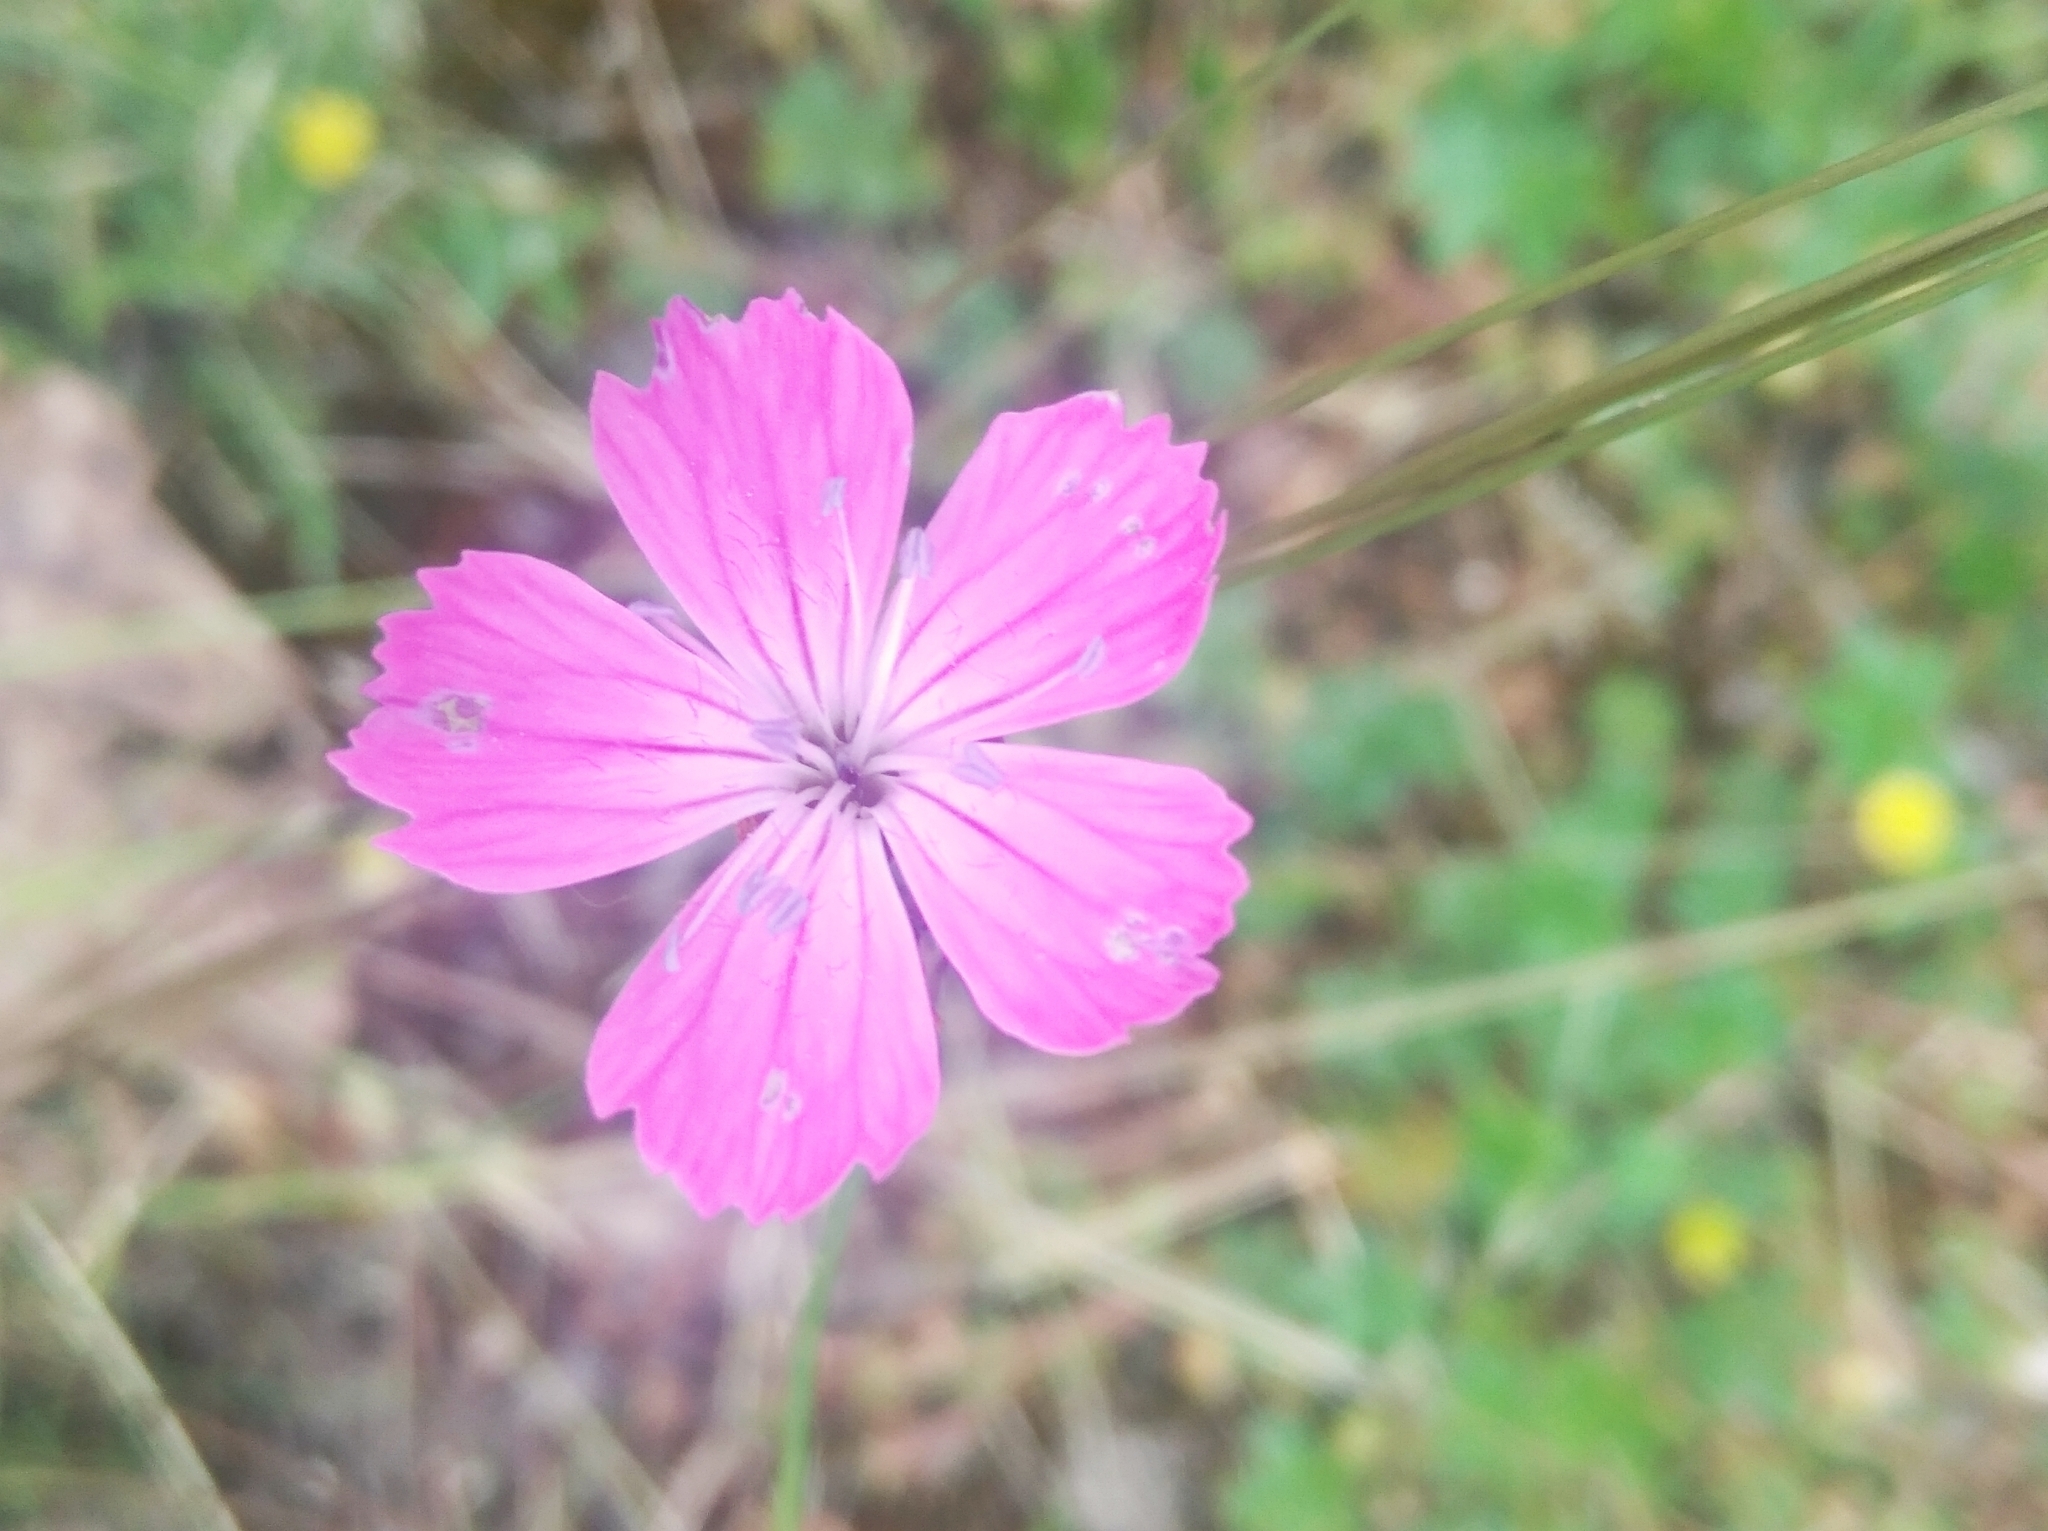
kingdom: Plantae
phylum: Tracheophyta
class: Magnoliopsida
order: Caryophyllales
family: Caryophyllaceae
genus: Dianthus
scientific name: Dianthus carthusianorum
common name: Carthusian pink
